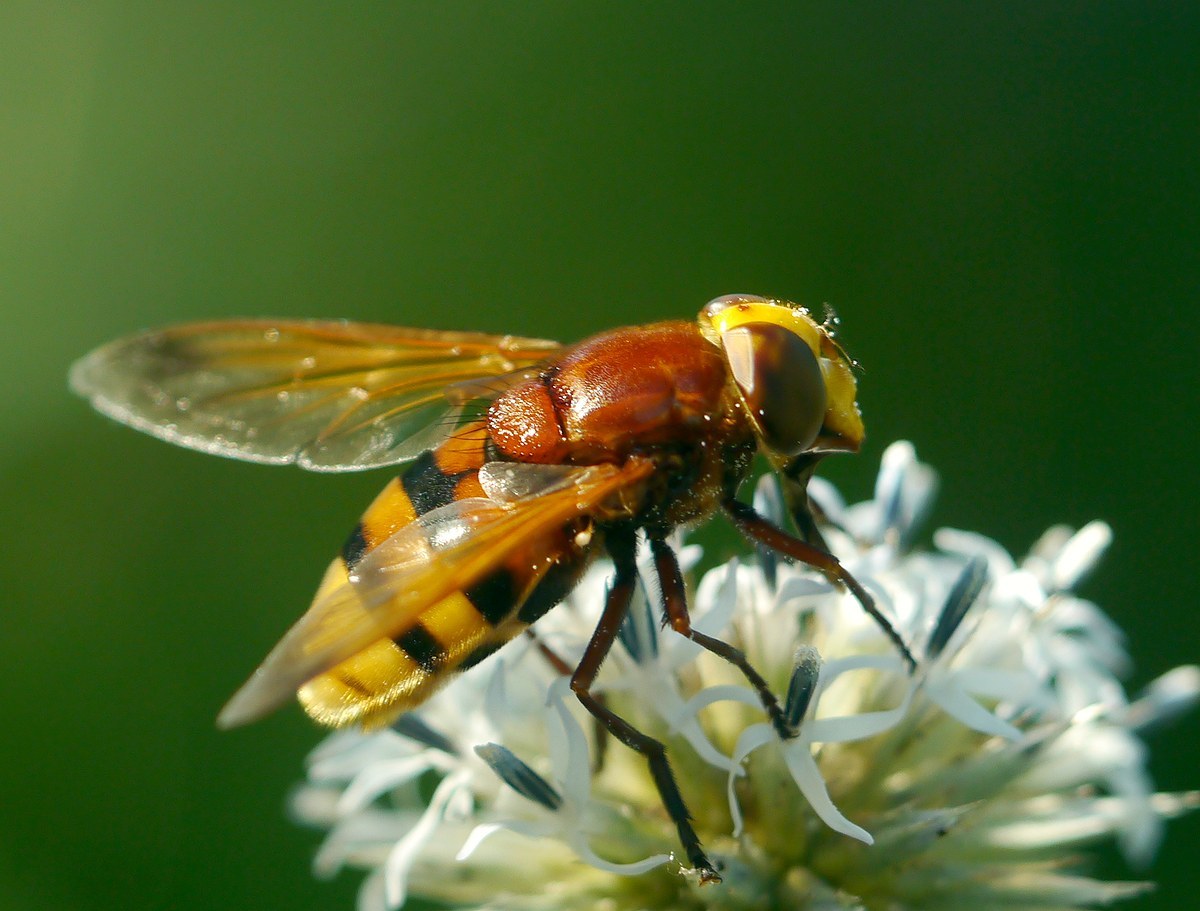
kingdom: Animalia
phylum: Arthropoda
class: Insecta
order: Diptera
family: Syrphidae
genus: Volucella
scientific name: Volucella zonaria
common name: Hornet hoverfly
